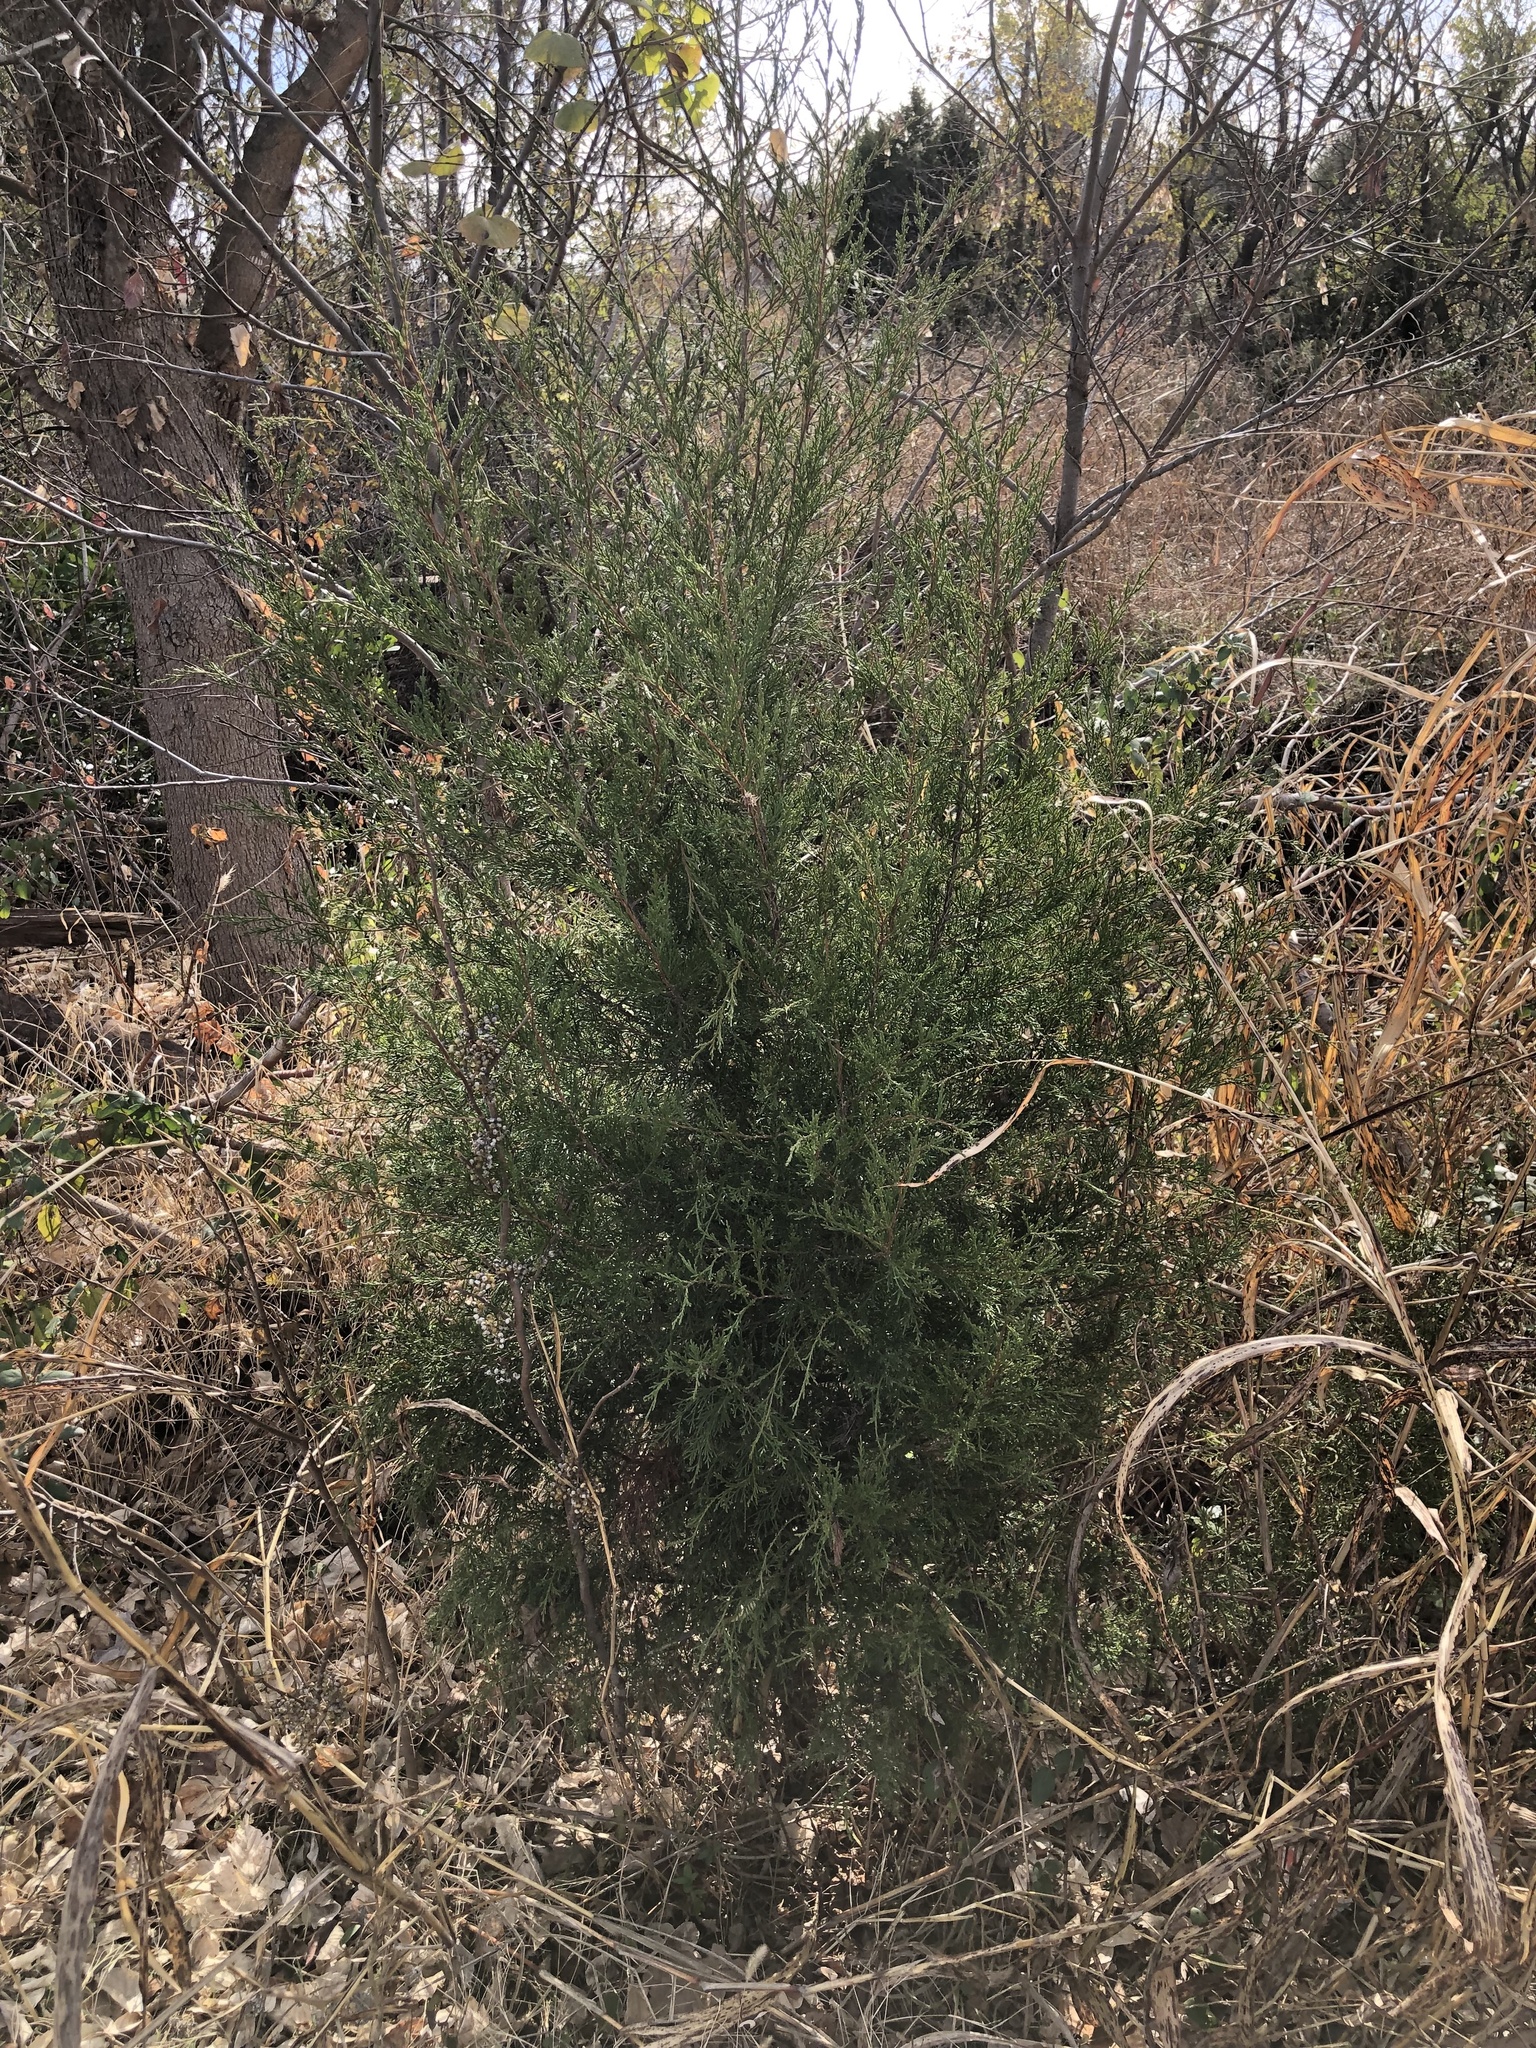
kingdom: Plantae
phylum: Tracheophyta
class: Pinopsida
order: Pinales
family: Cupressaceae
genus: Juniperus
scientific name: Juniperus virginiana
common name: Red juniper
